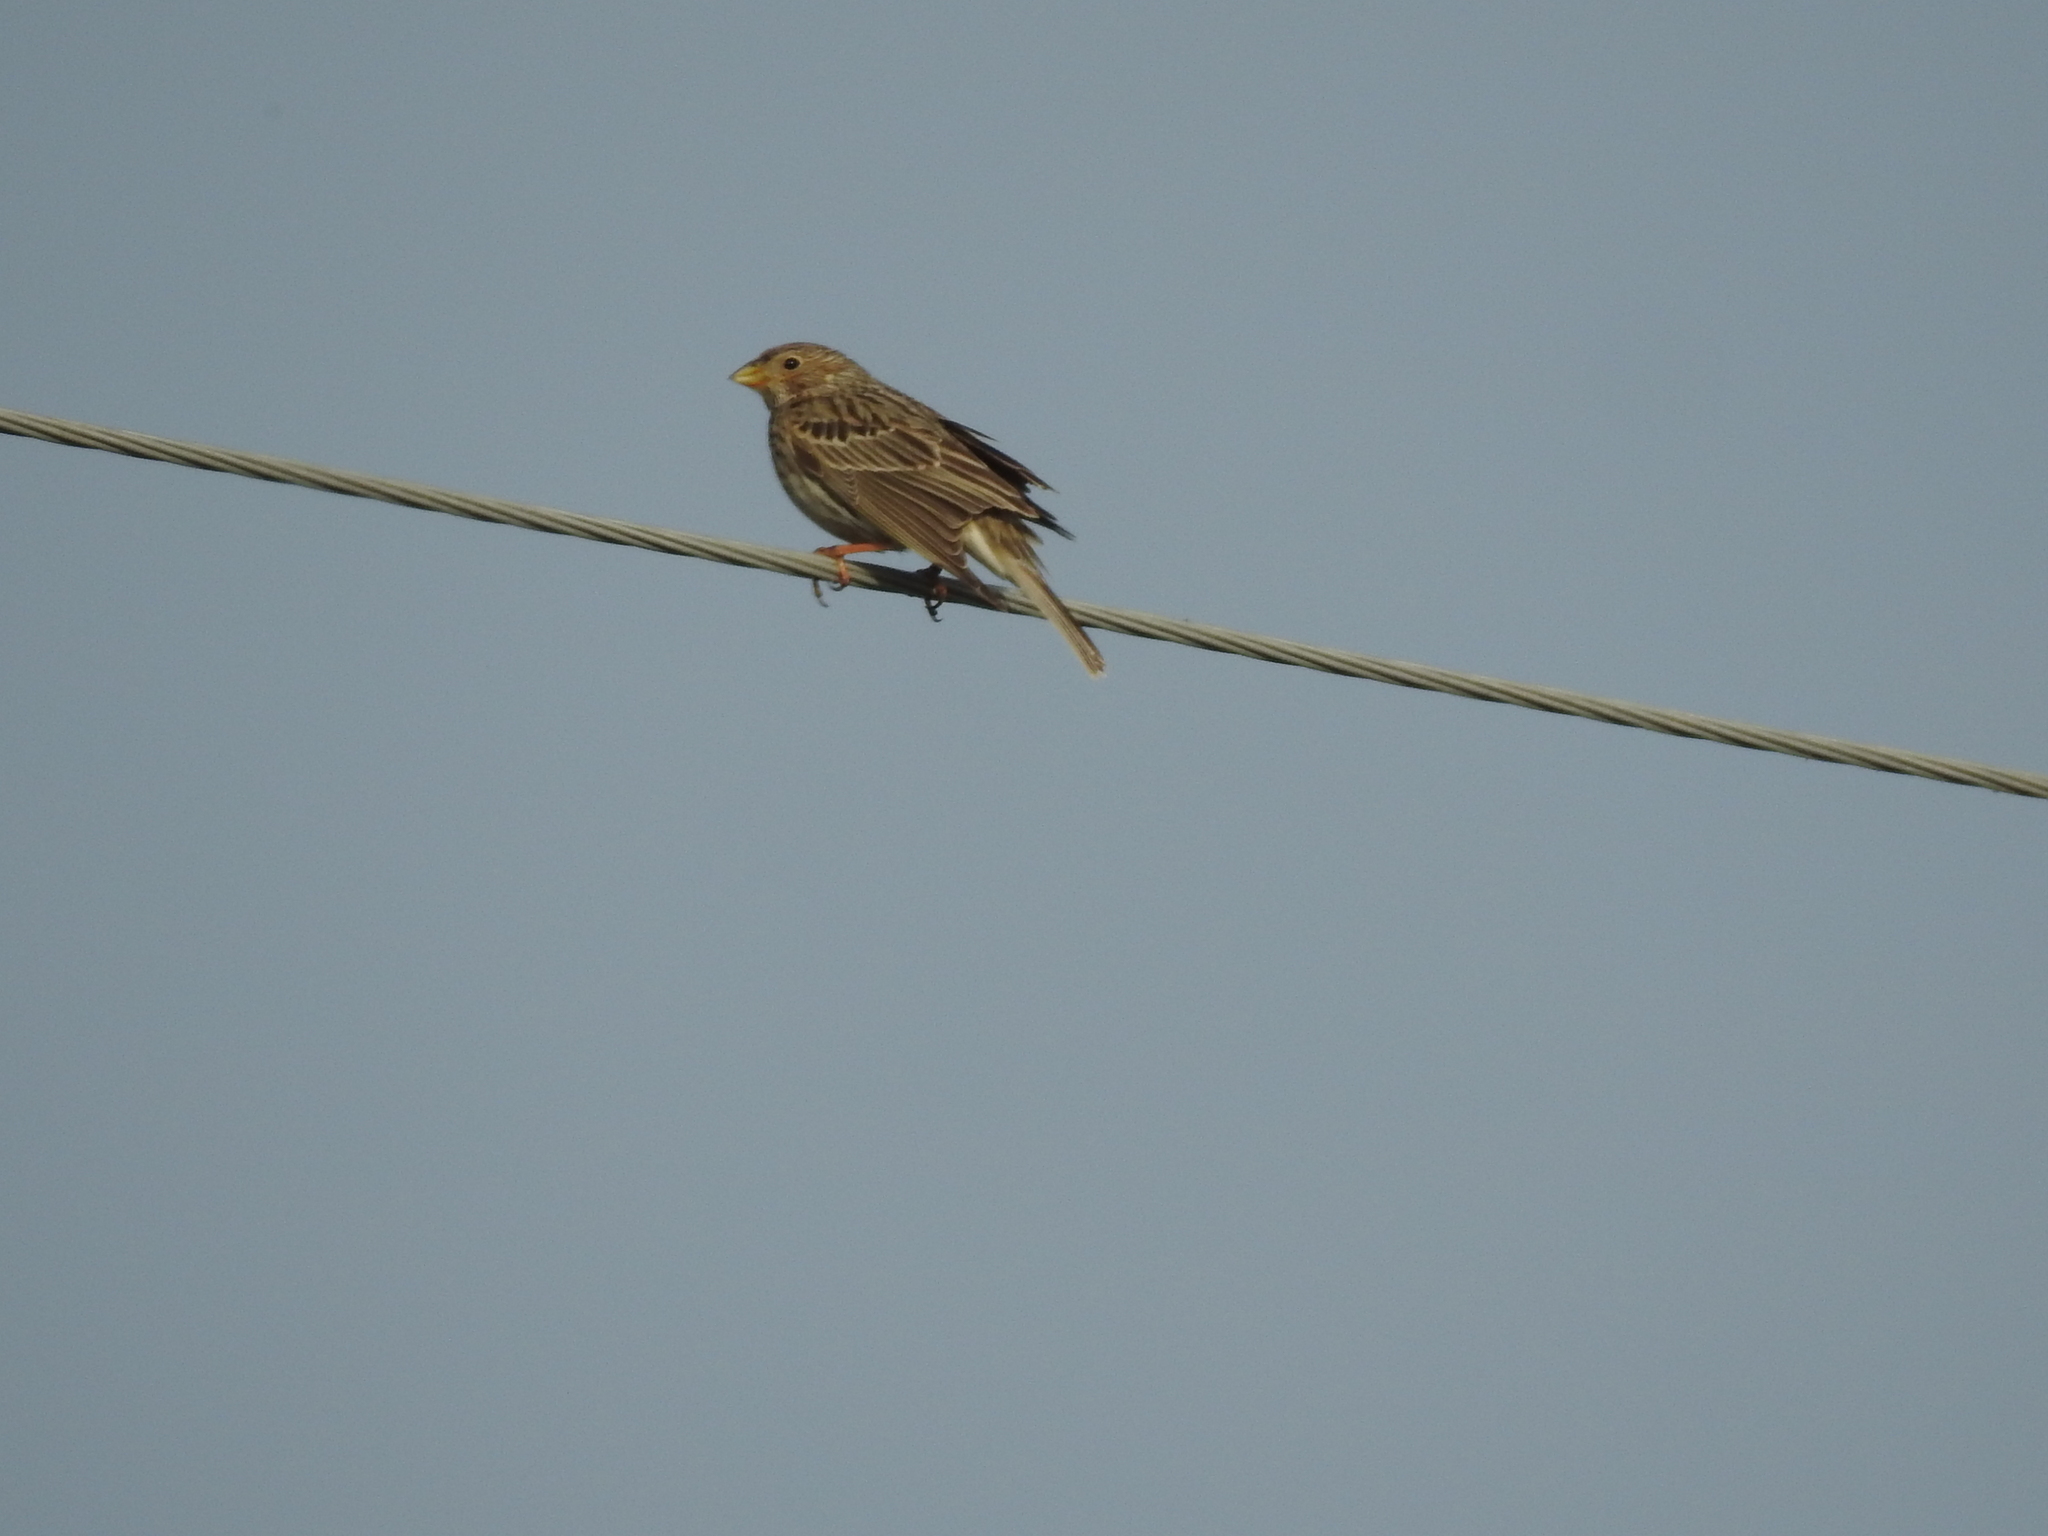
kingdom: Animalia
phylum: Chordata
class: Aves
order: Passeriformes
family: Emberizidae
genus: Emberiza
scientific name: Emberiza calandra
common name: Corn bunting
